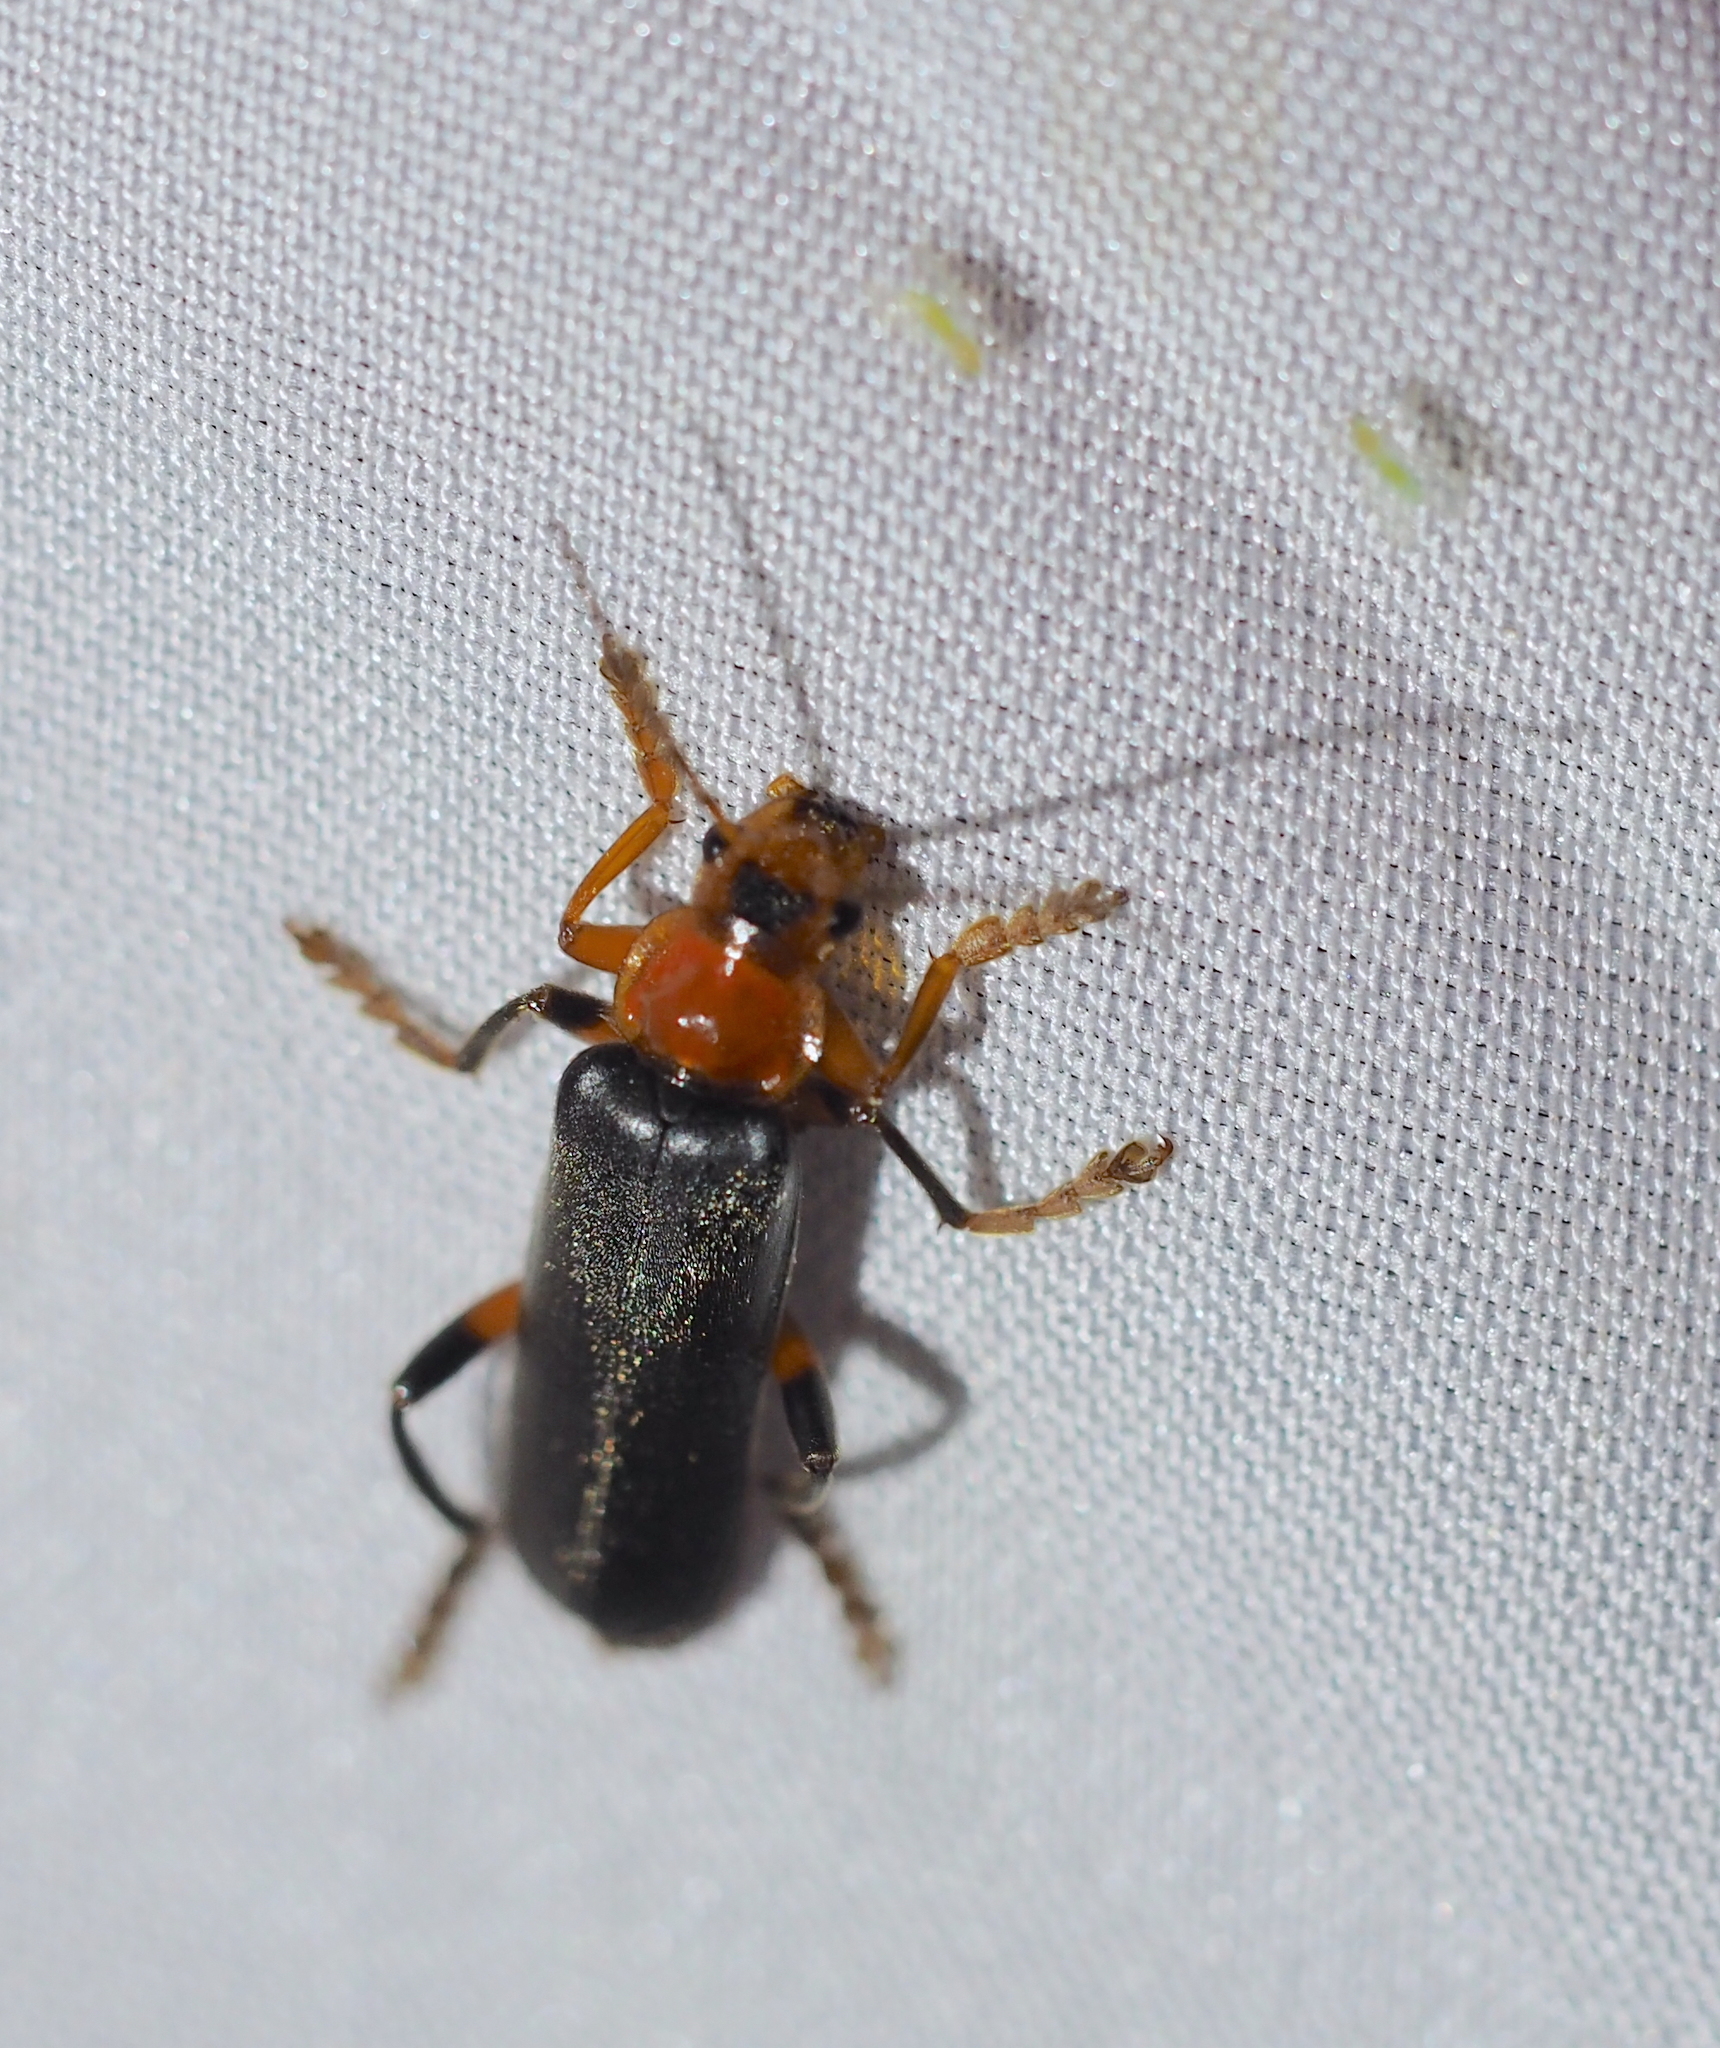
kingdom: Animalia
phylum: Arthropoda
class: Insecta
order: Coleoptera
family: Cantharidae
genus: Cantharis
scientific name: Cantharis livida
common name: Livid soldier beetle
